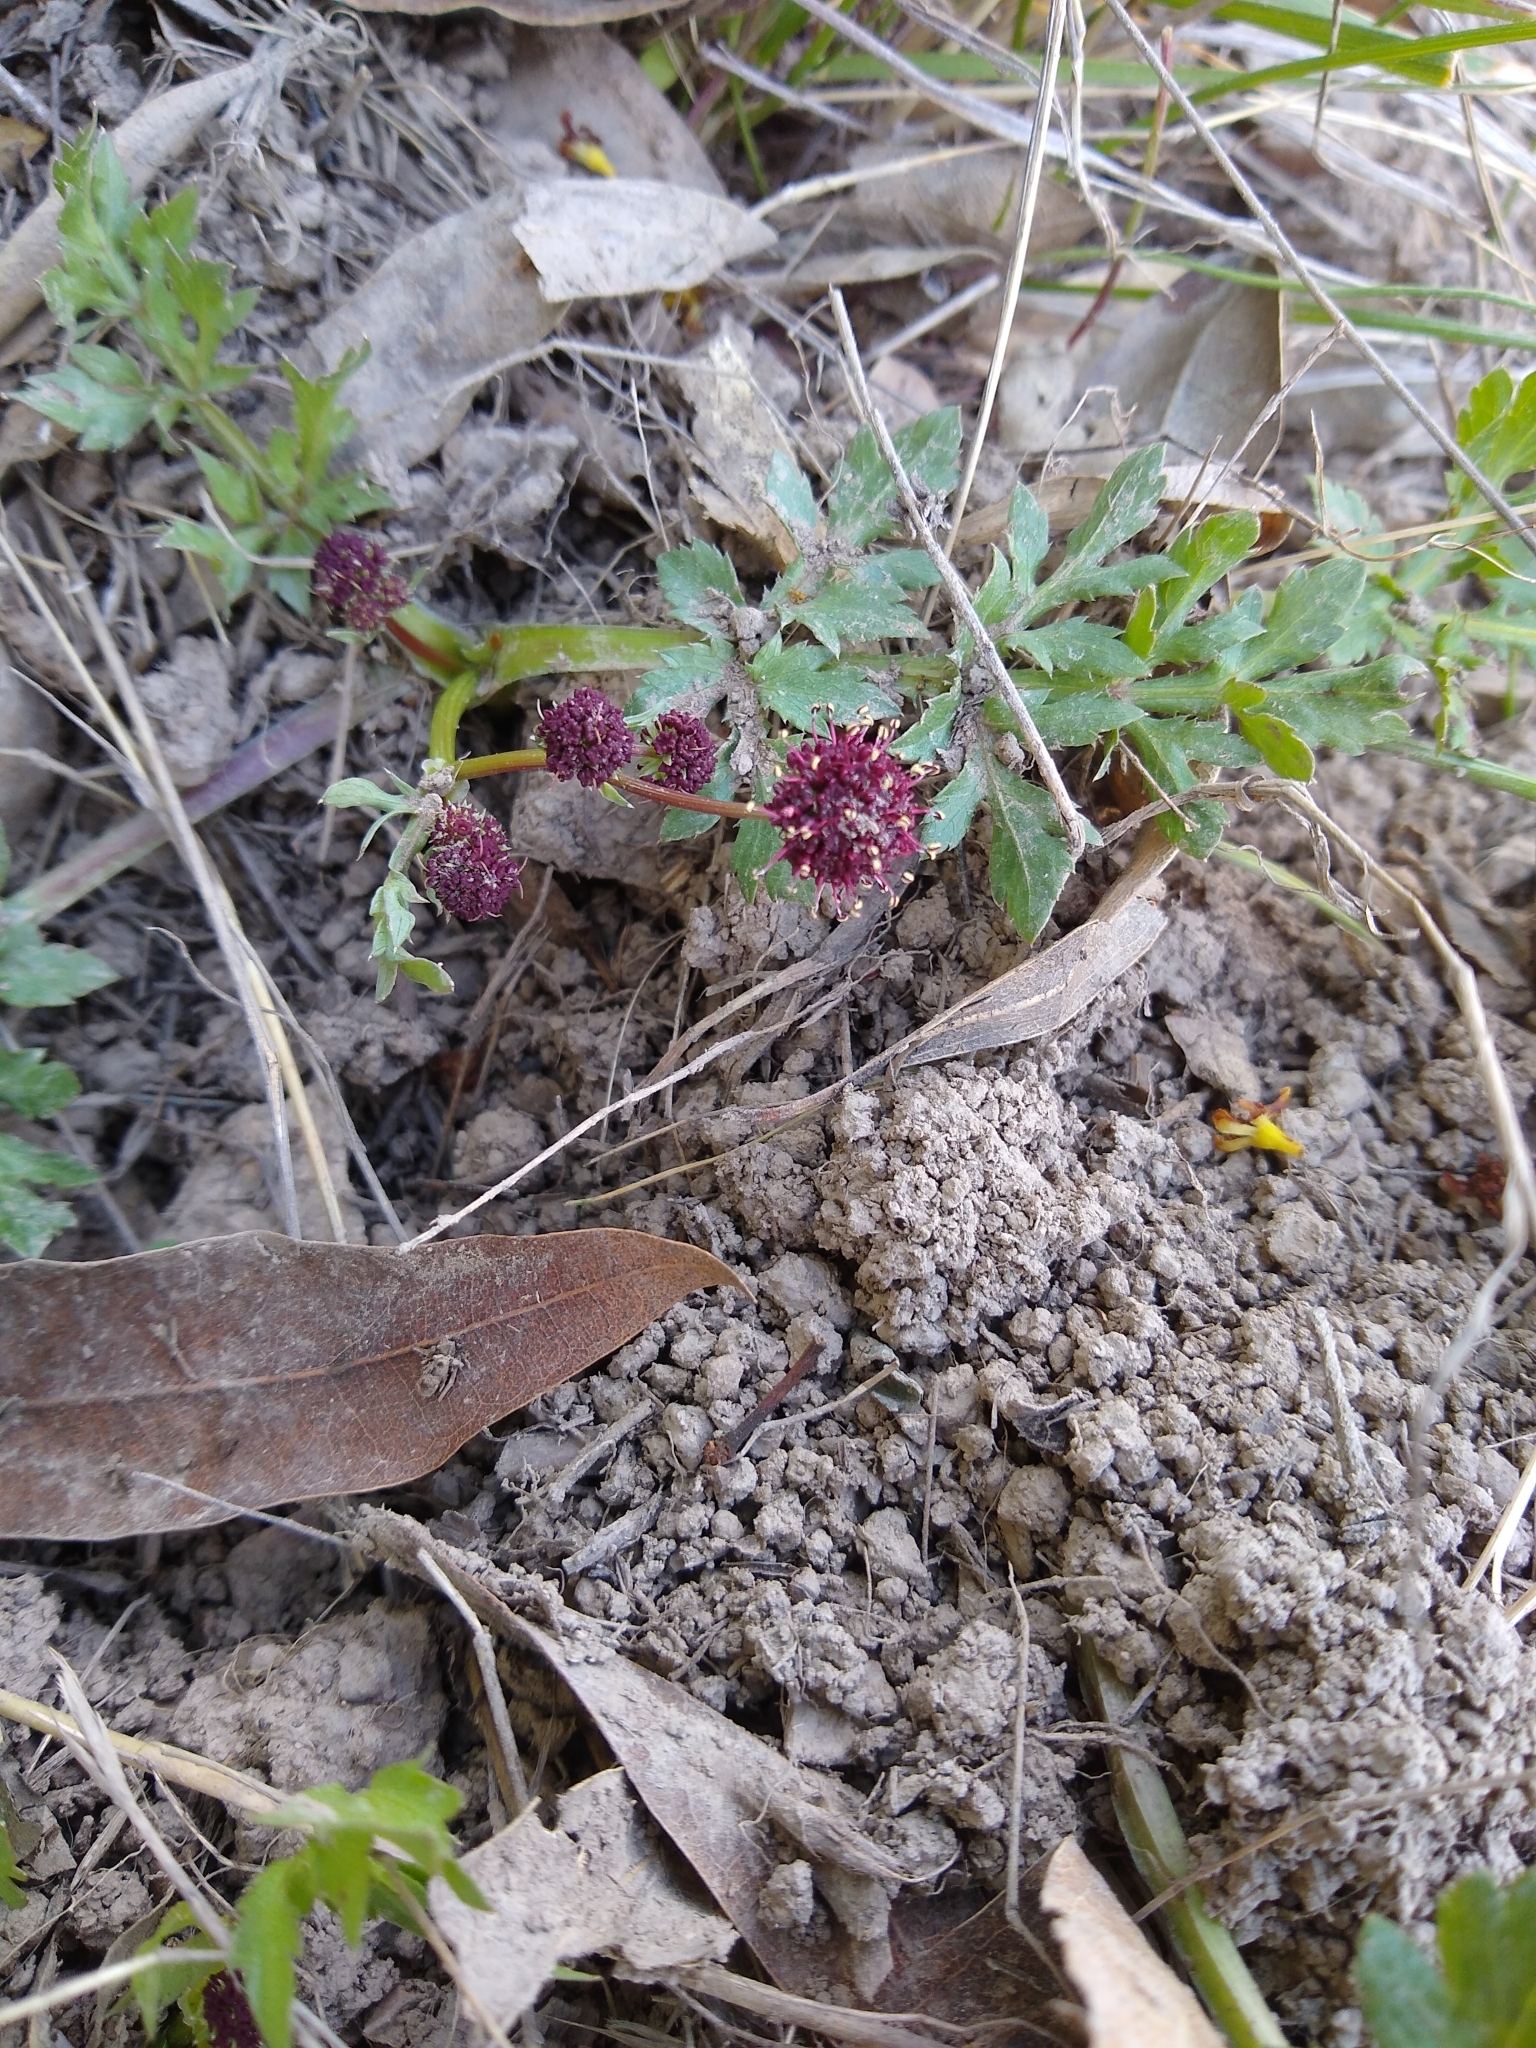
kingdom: Plantae
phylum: Tracheophyta
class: Magnoliopsida
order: Apiales
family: Apiaceae
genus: Sanicula
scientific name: Sanicula bipinnatifida
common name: Shoe-buttons
